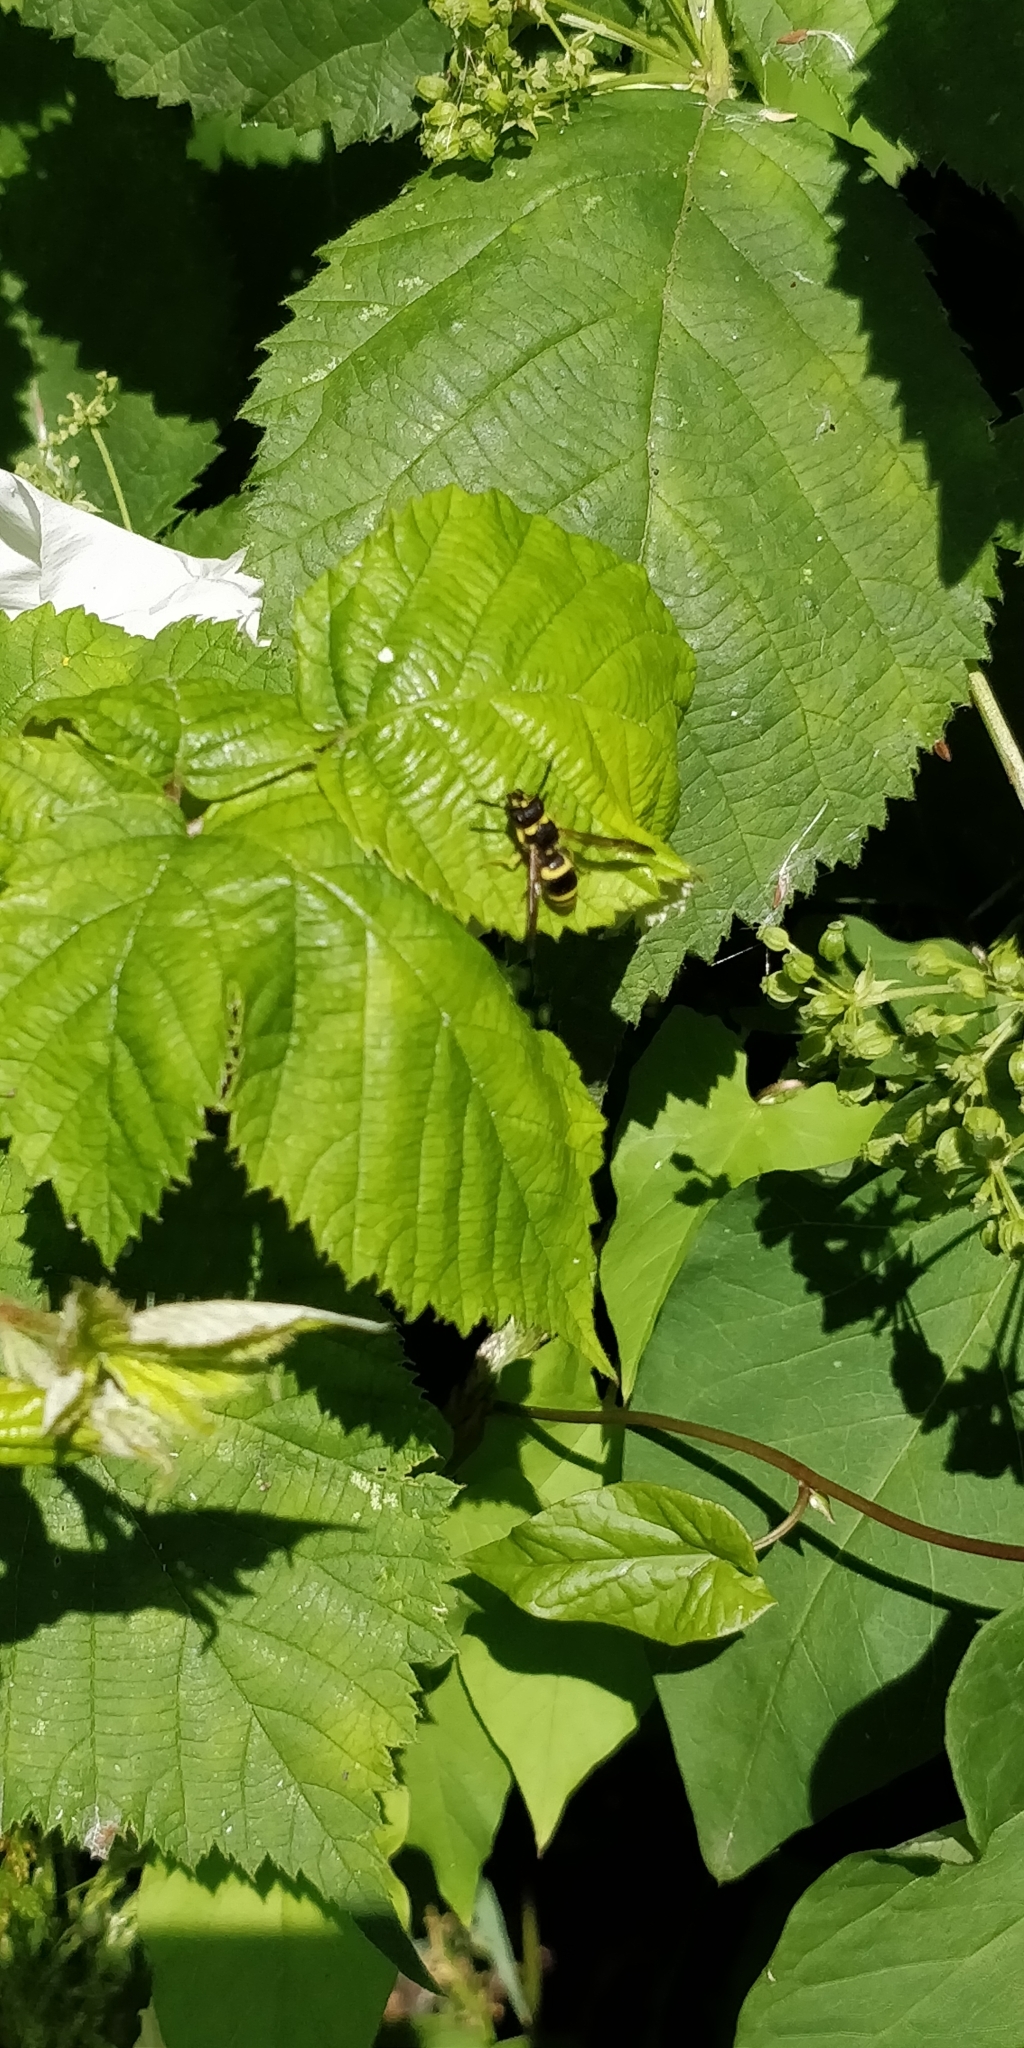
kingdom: Animalia
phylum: Arthropoda
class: Insecta
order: Hymenoptera
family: Vespidae
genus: Ancistrocerus
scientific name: Ancistrocerus
